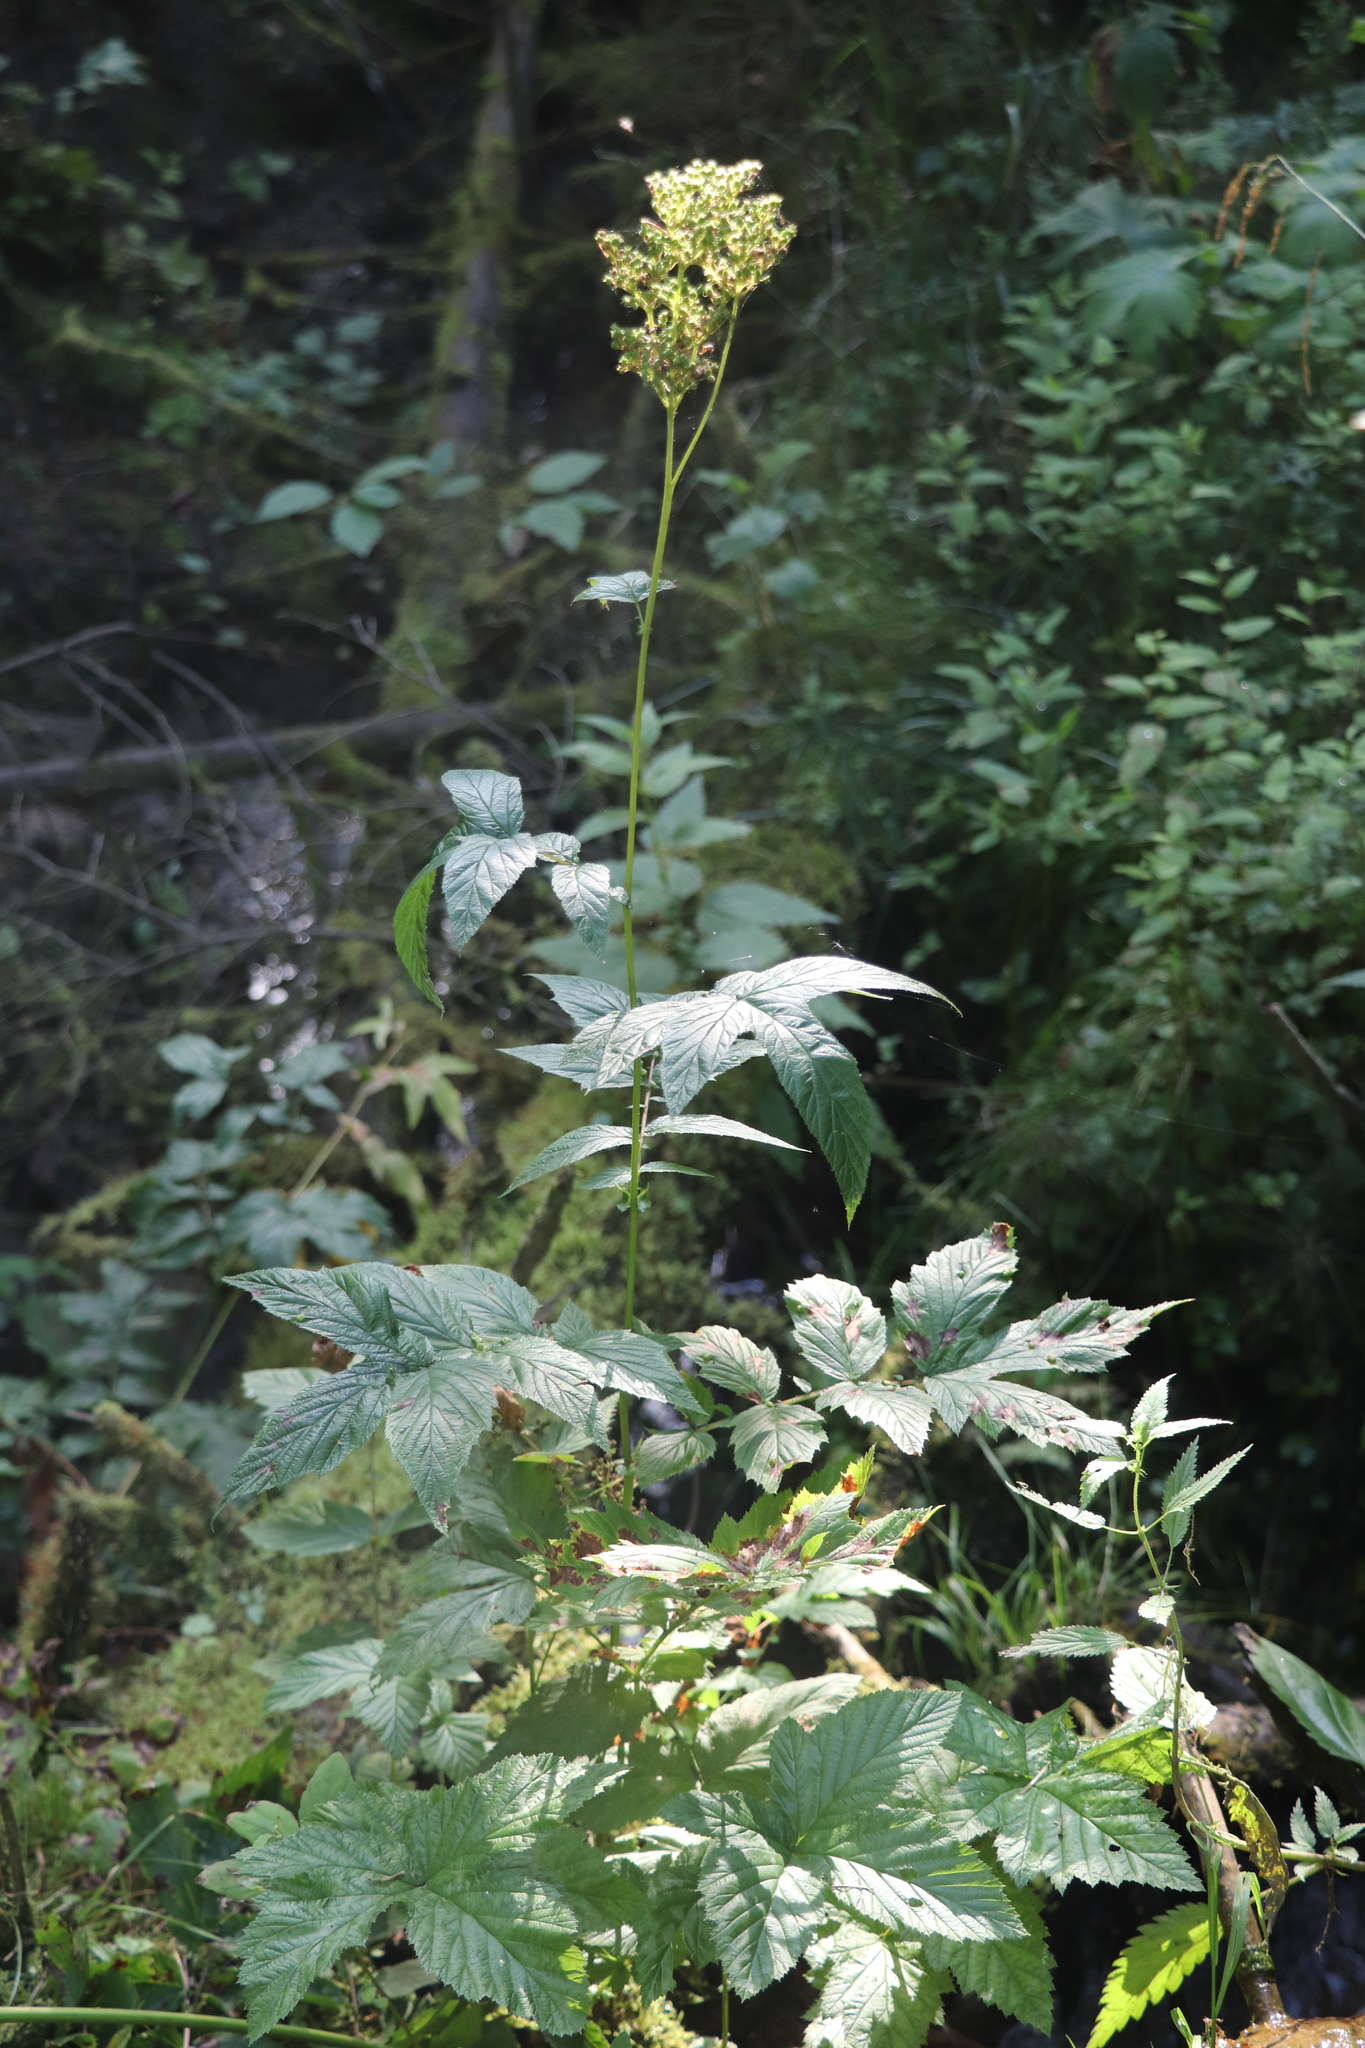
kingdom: Plantae
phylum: Tracheophyta
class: Magnoliopsida
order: Rosales
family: Rosaceae
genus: Filipendula
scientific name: Filipendula ulmaria
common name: Meadowsweet
